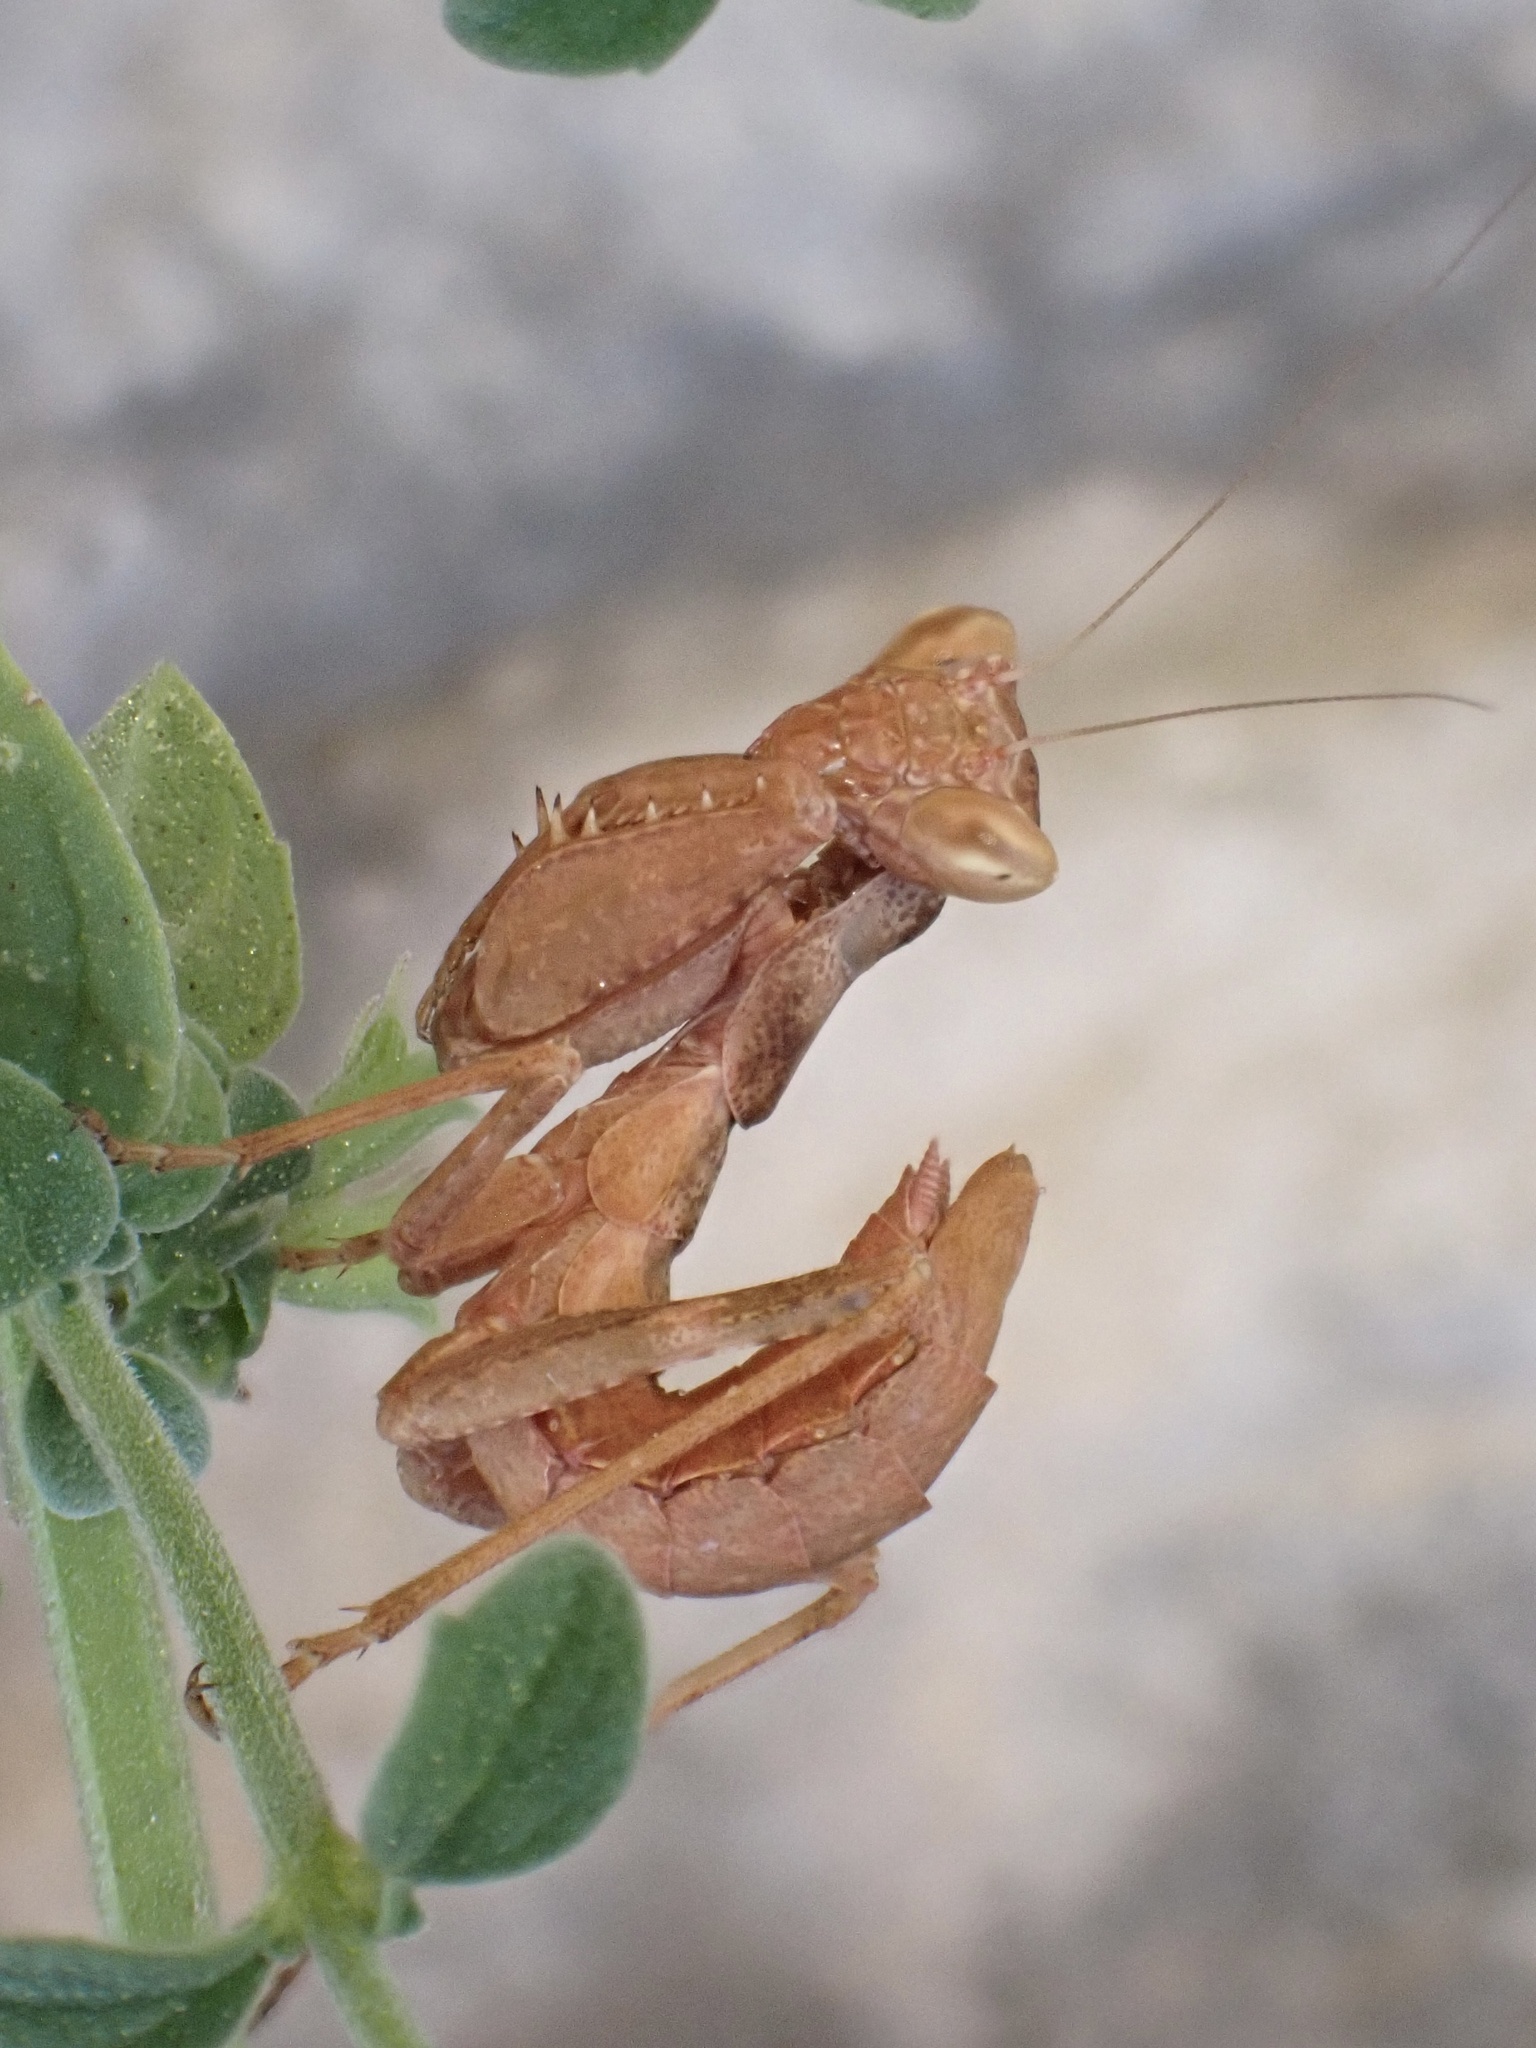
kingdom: Animalia
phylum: Arthropoda
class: Insecta
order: Mantodea
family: Amelidae
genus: Ameles
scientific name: Ameles spallanzania
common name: European dwarf mantis
